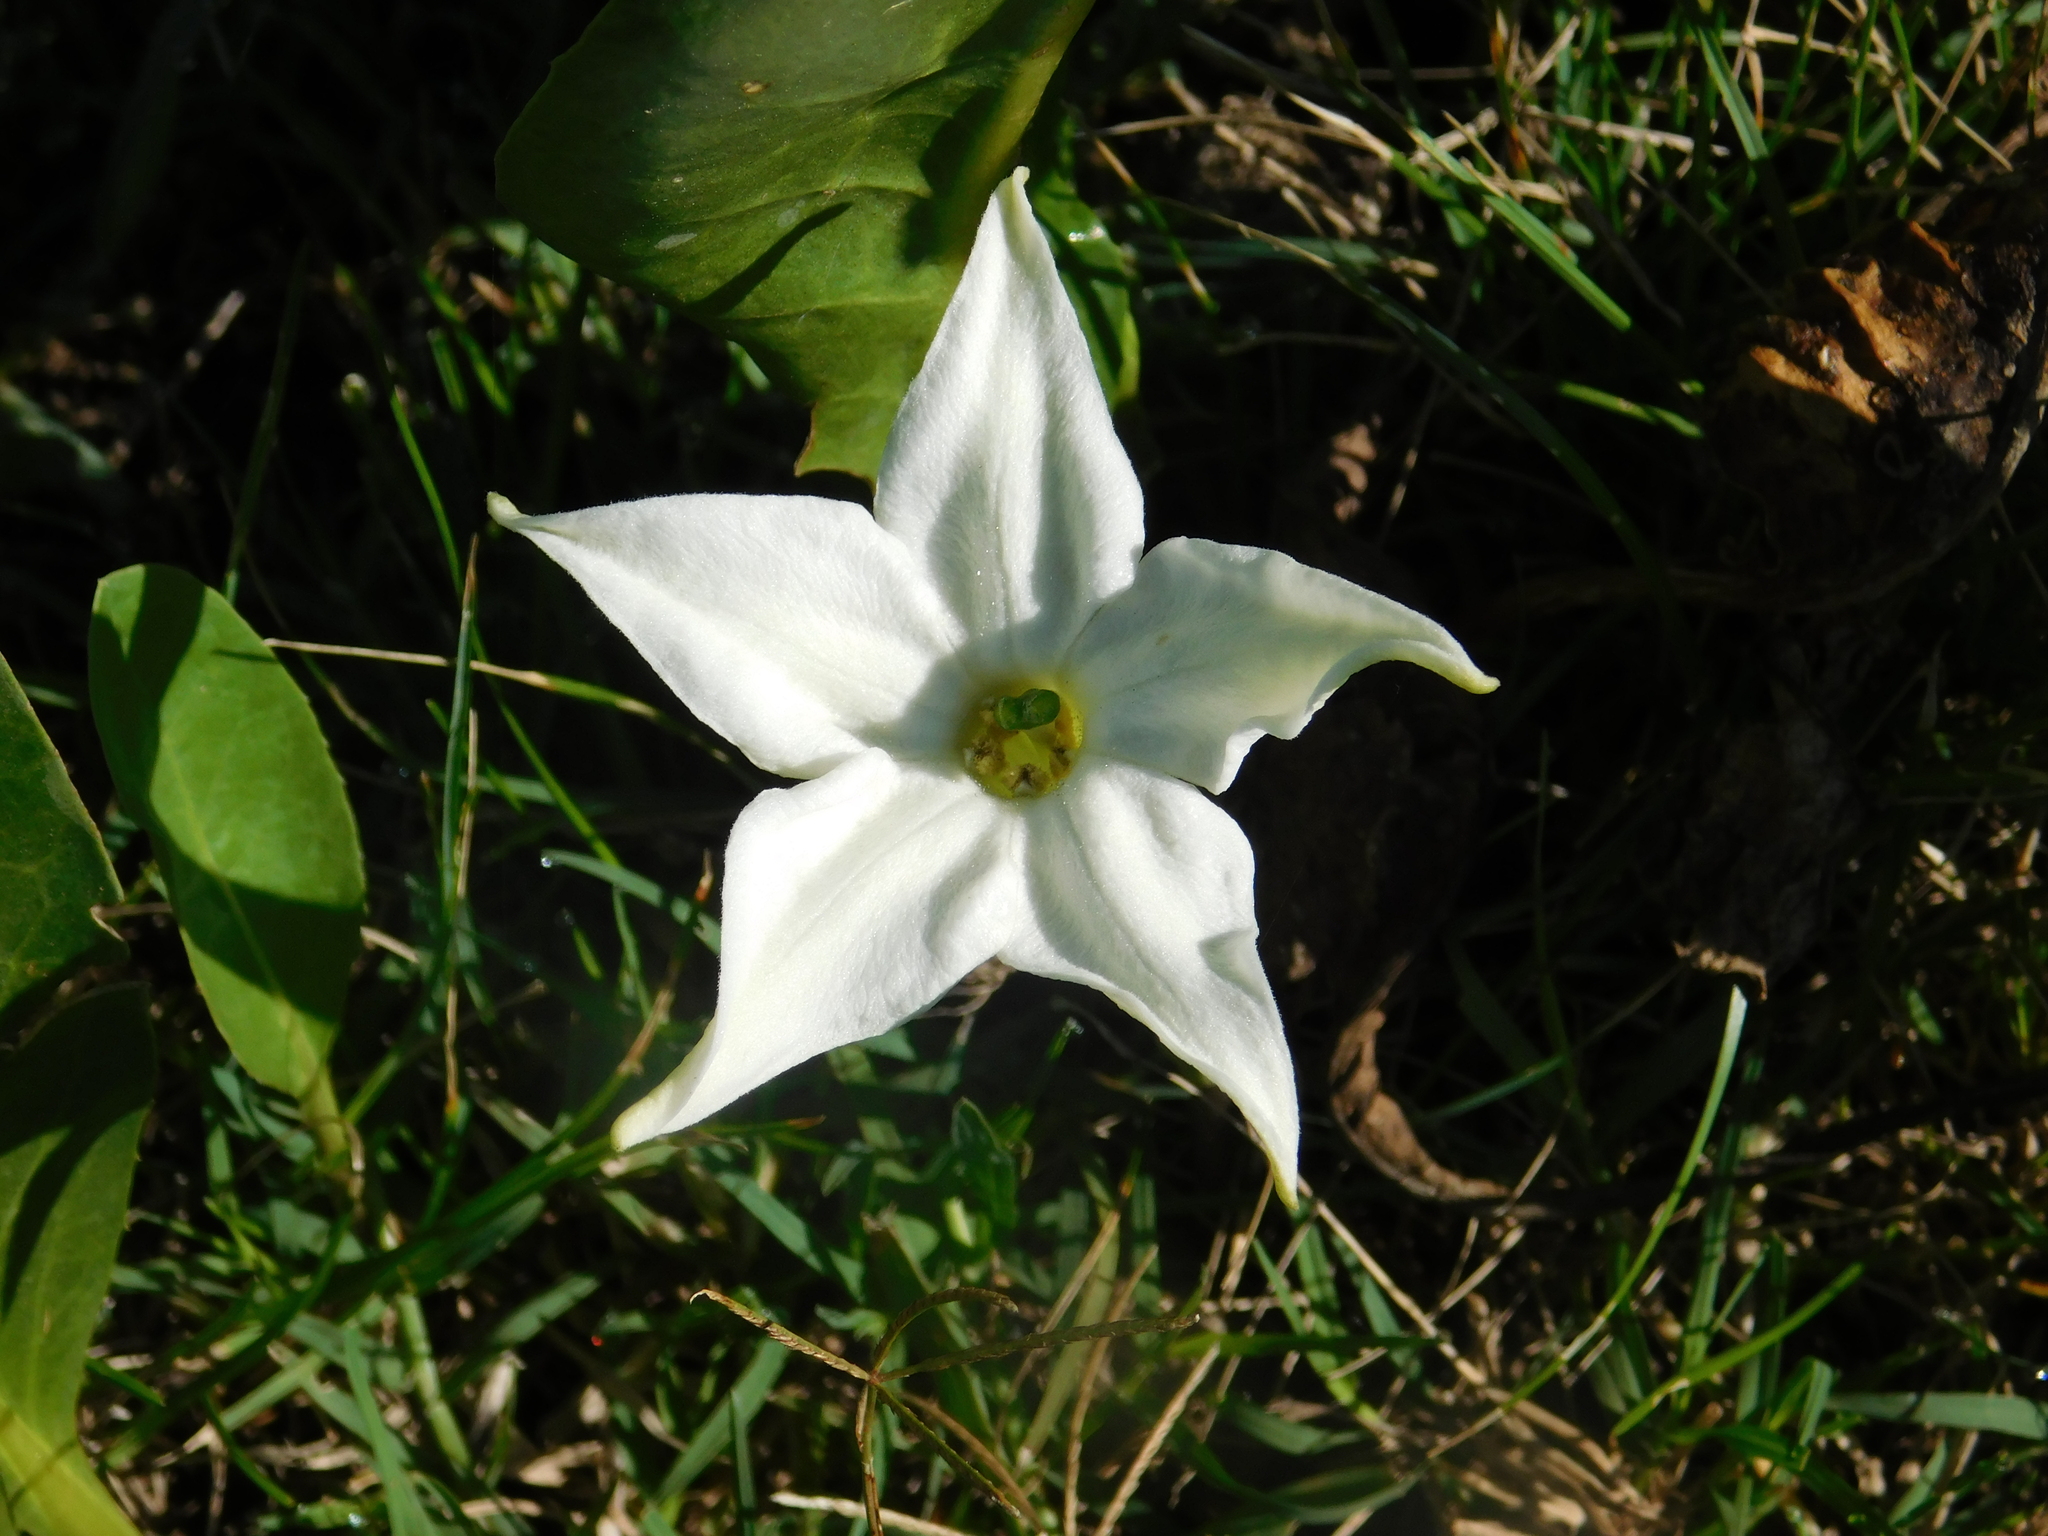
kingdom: Plantae
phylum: Tracheophyta
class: Magnoliopsida
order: Solanales
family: Solanaceae
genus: Jaborosa
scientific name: Jaborosa integrifolia
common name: Springblossom
